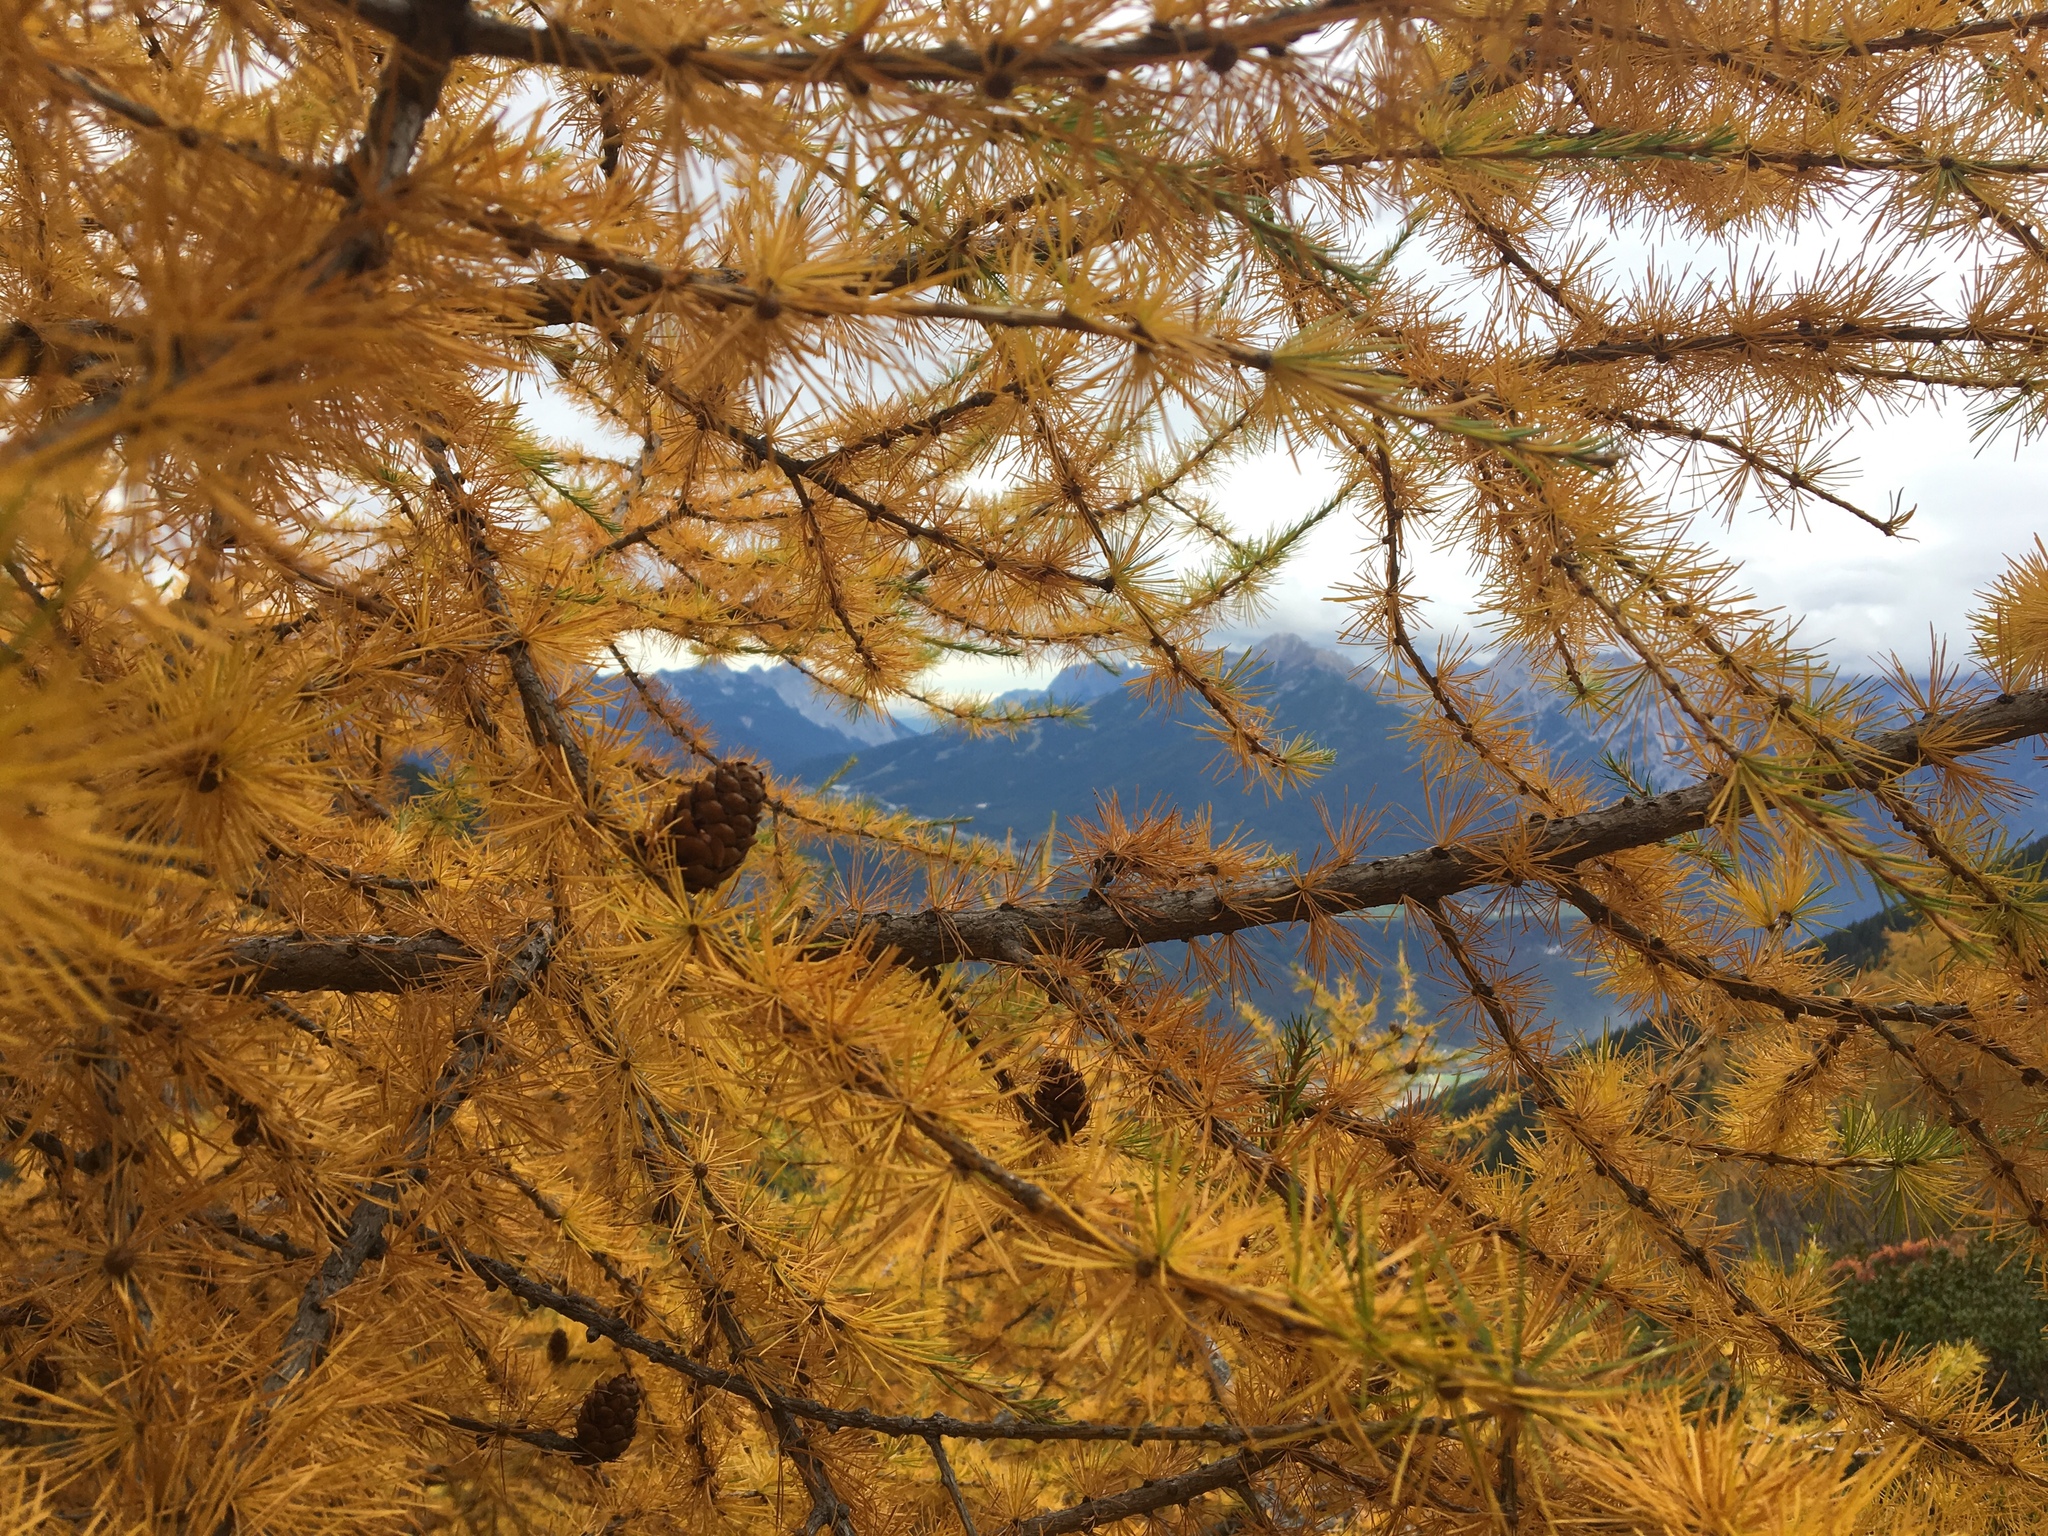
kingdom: Plantae
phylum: Tracheophyta
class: Pinopsida
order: Pinales
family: Pinaceae
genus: Larix
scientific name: Larix decidua
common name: European larch
